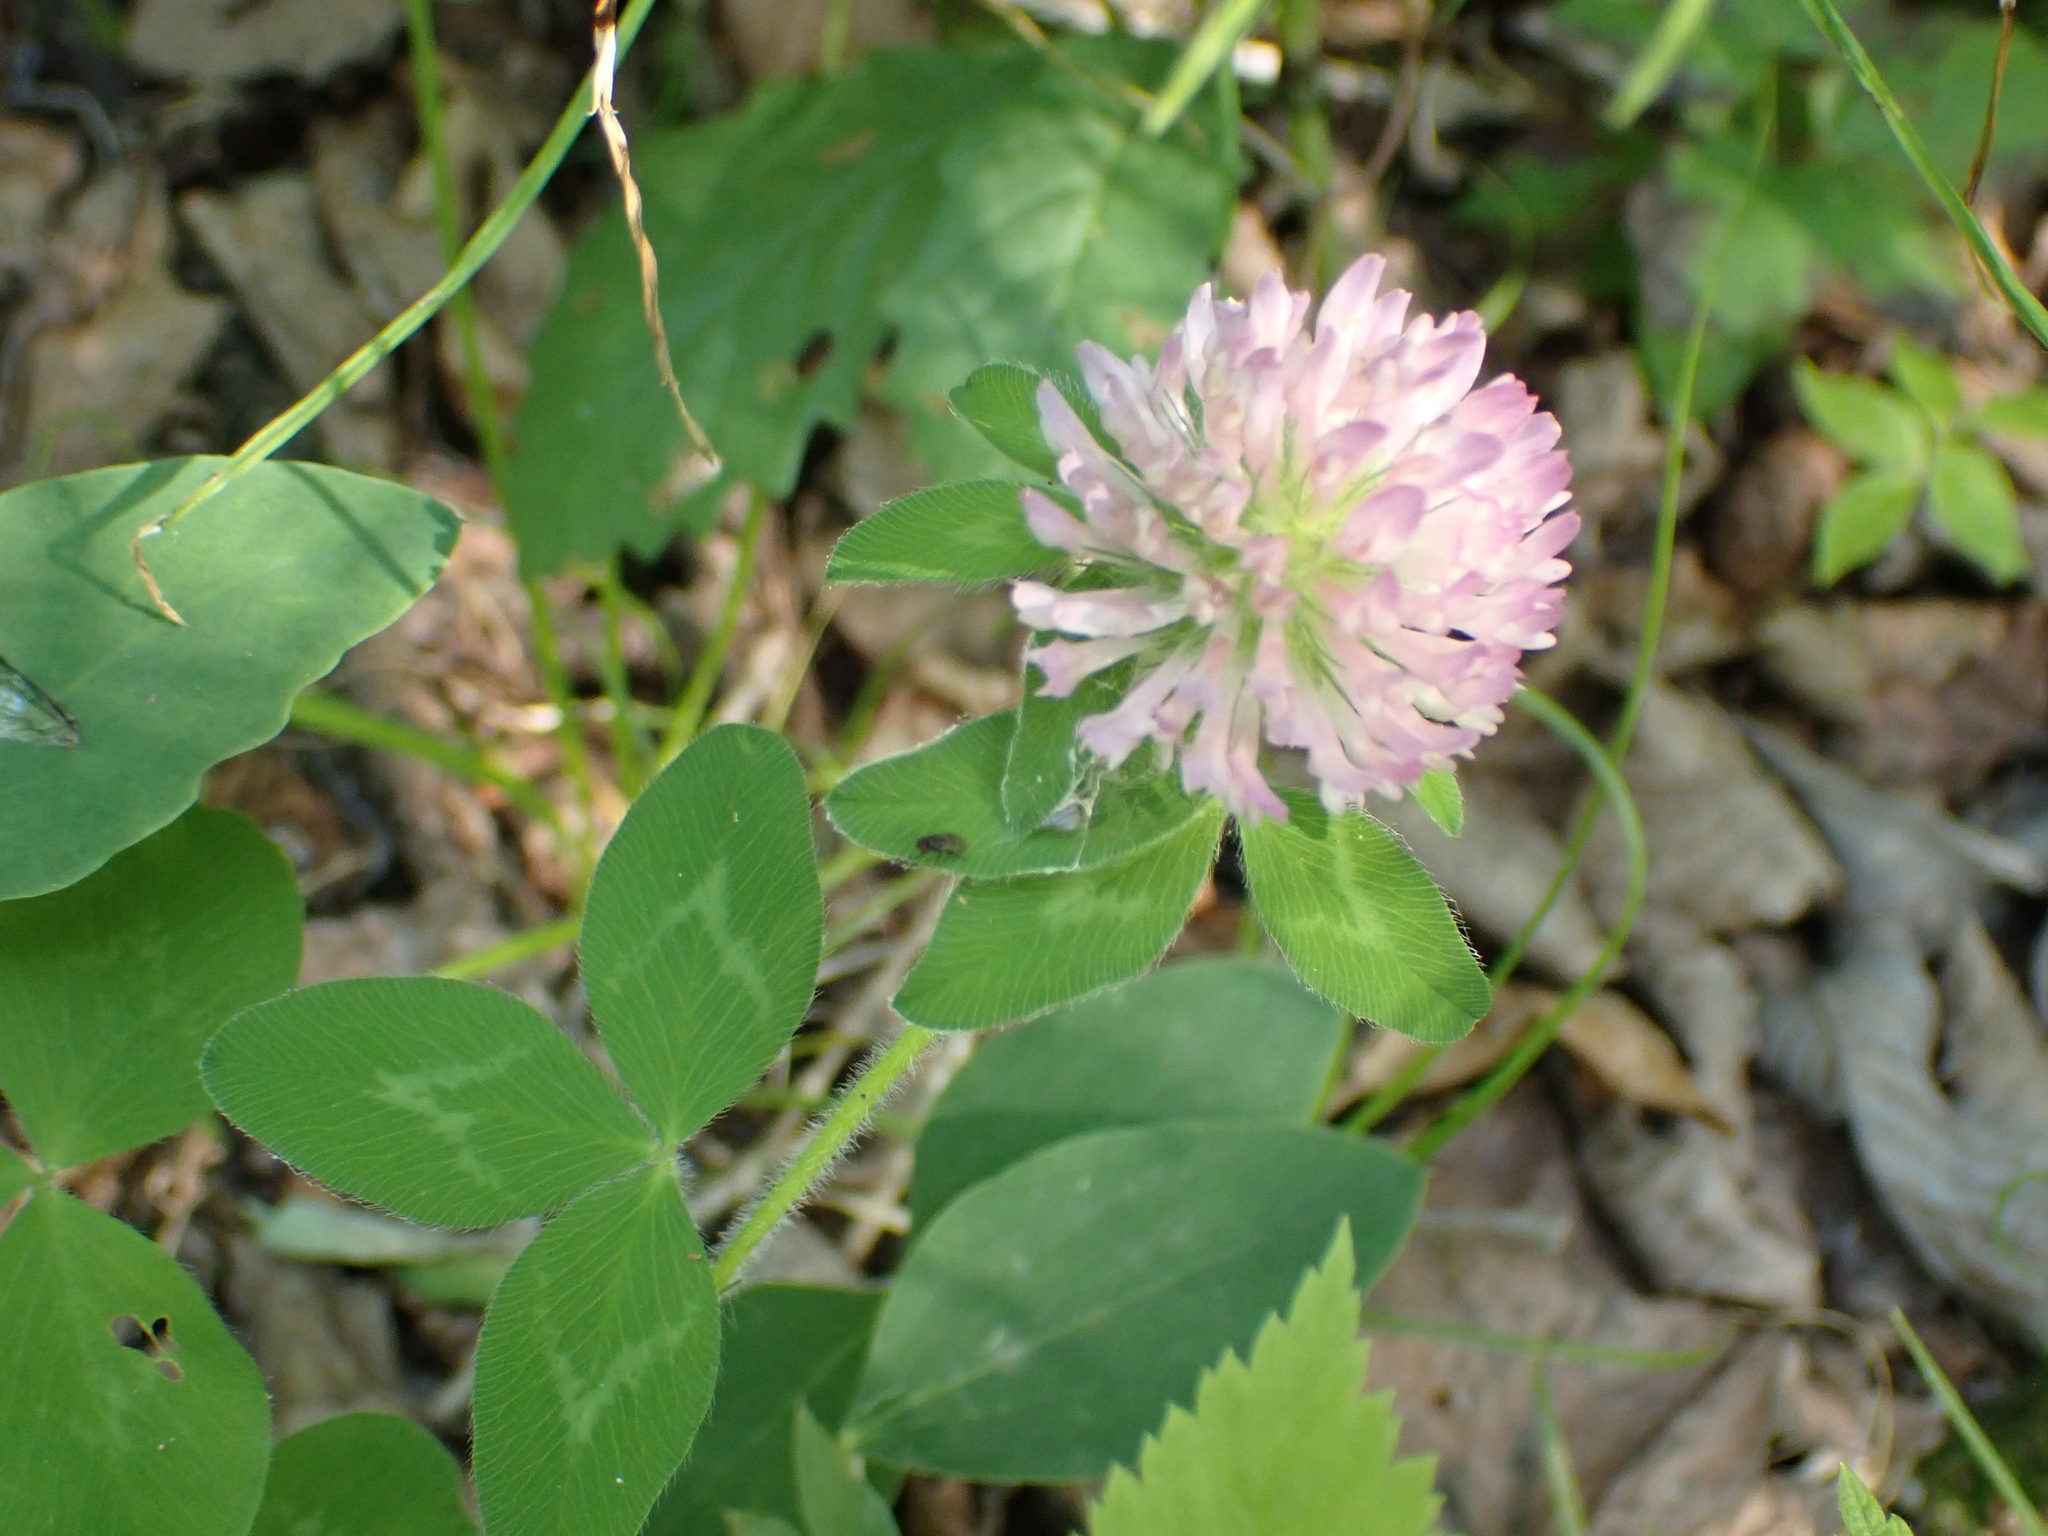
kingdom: Plantae
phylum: Tracheophyta
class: Magnoliopsida
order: Fabales
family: Fabaceae
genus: Trifolium
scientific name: Trifolium pratense
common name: Red clover
